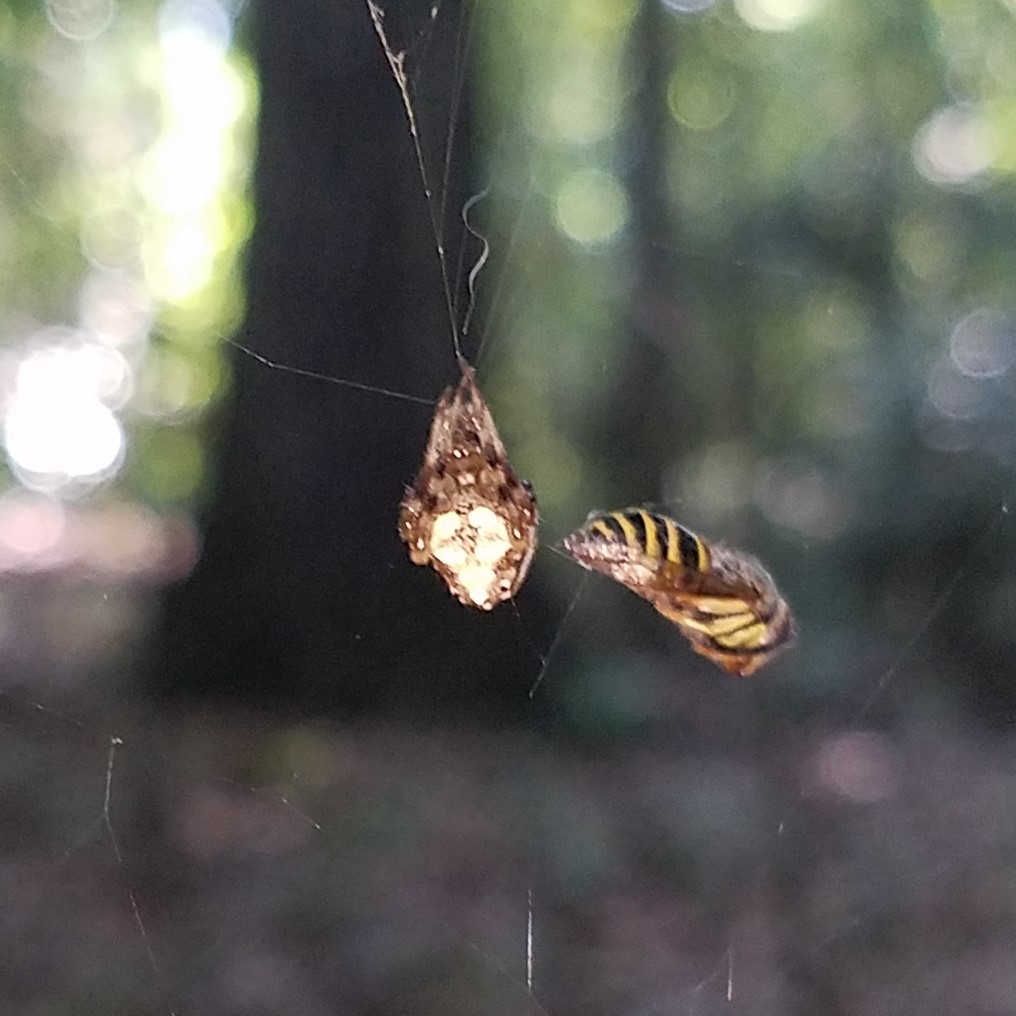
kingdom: Animalia
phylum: Arthropoda
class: Arachnida
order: Araneae
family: Araneidae
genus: Verrucosa
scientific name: Verrucosa arenata
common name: Orb weavers
